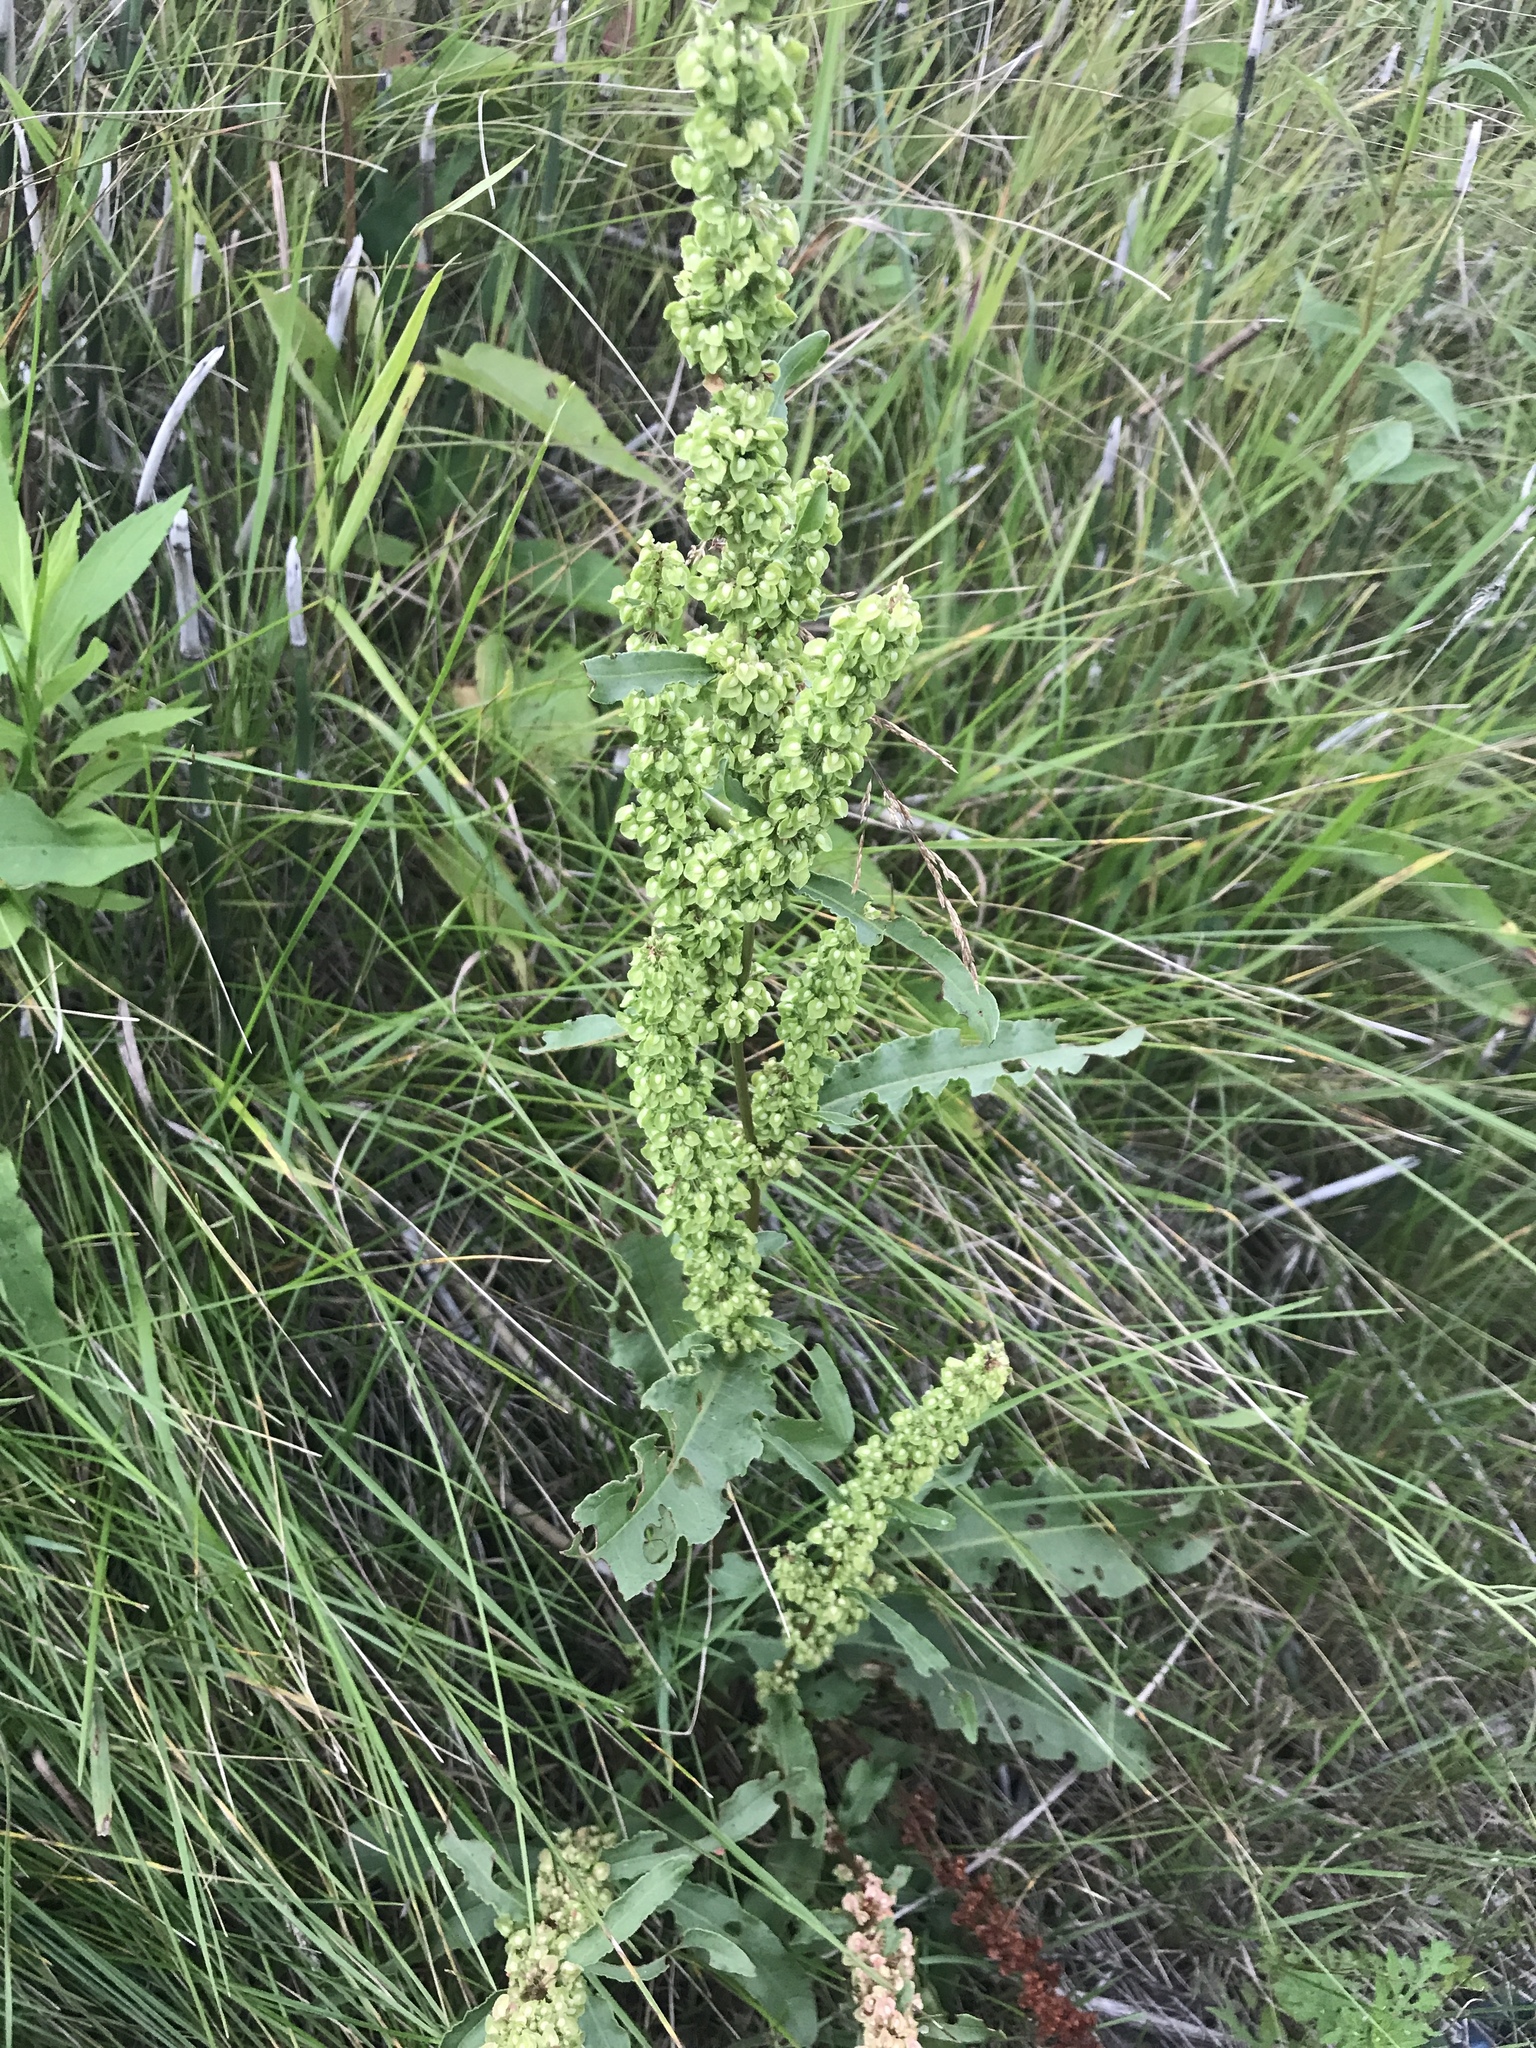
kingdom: Plantae
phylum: Tracheophyta
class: Magnoliopsida
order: Caryophyllales
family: Polygonaceae
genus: Rumex
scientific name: Rumex crispus
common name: Curled dock
